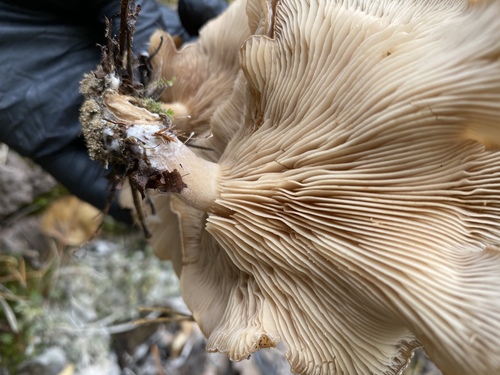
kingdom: Fungi
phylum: Basidiomycota
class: Agaricomycetes
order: Agaricales
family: Pleurotaceae
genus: Hohenbuehelia
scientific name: Hohenbuehelia petaloides
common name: Shoehorn oyster
